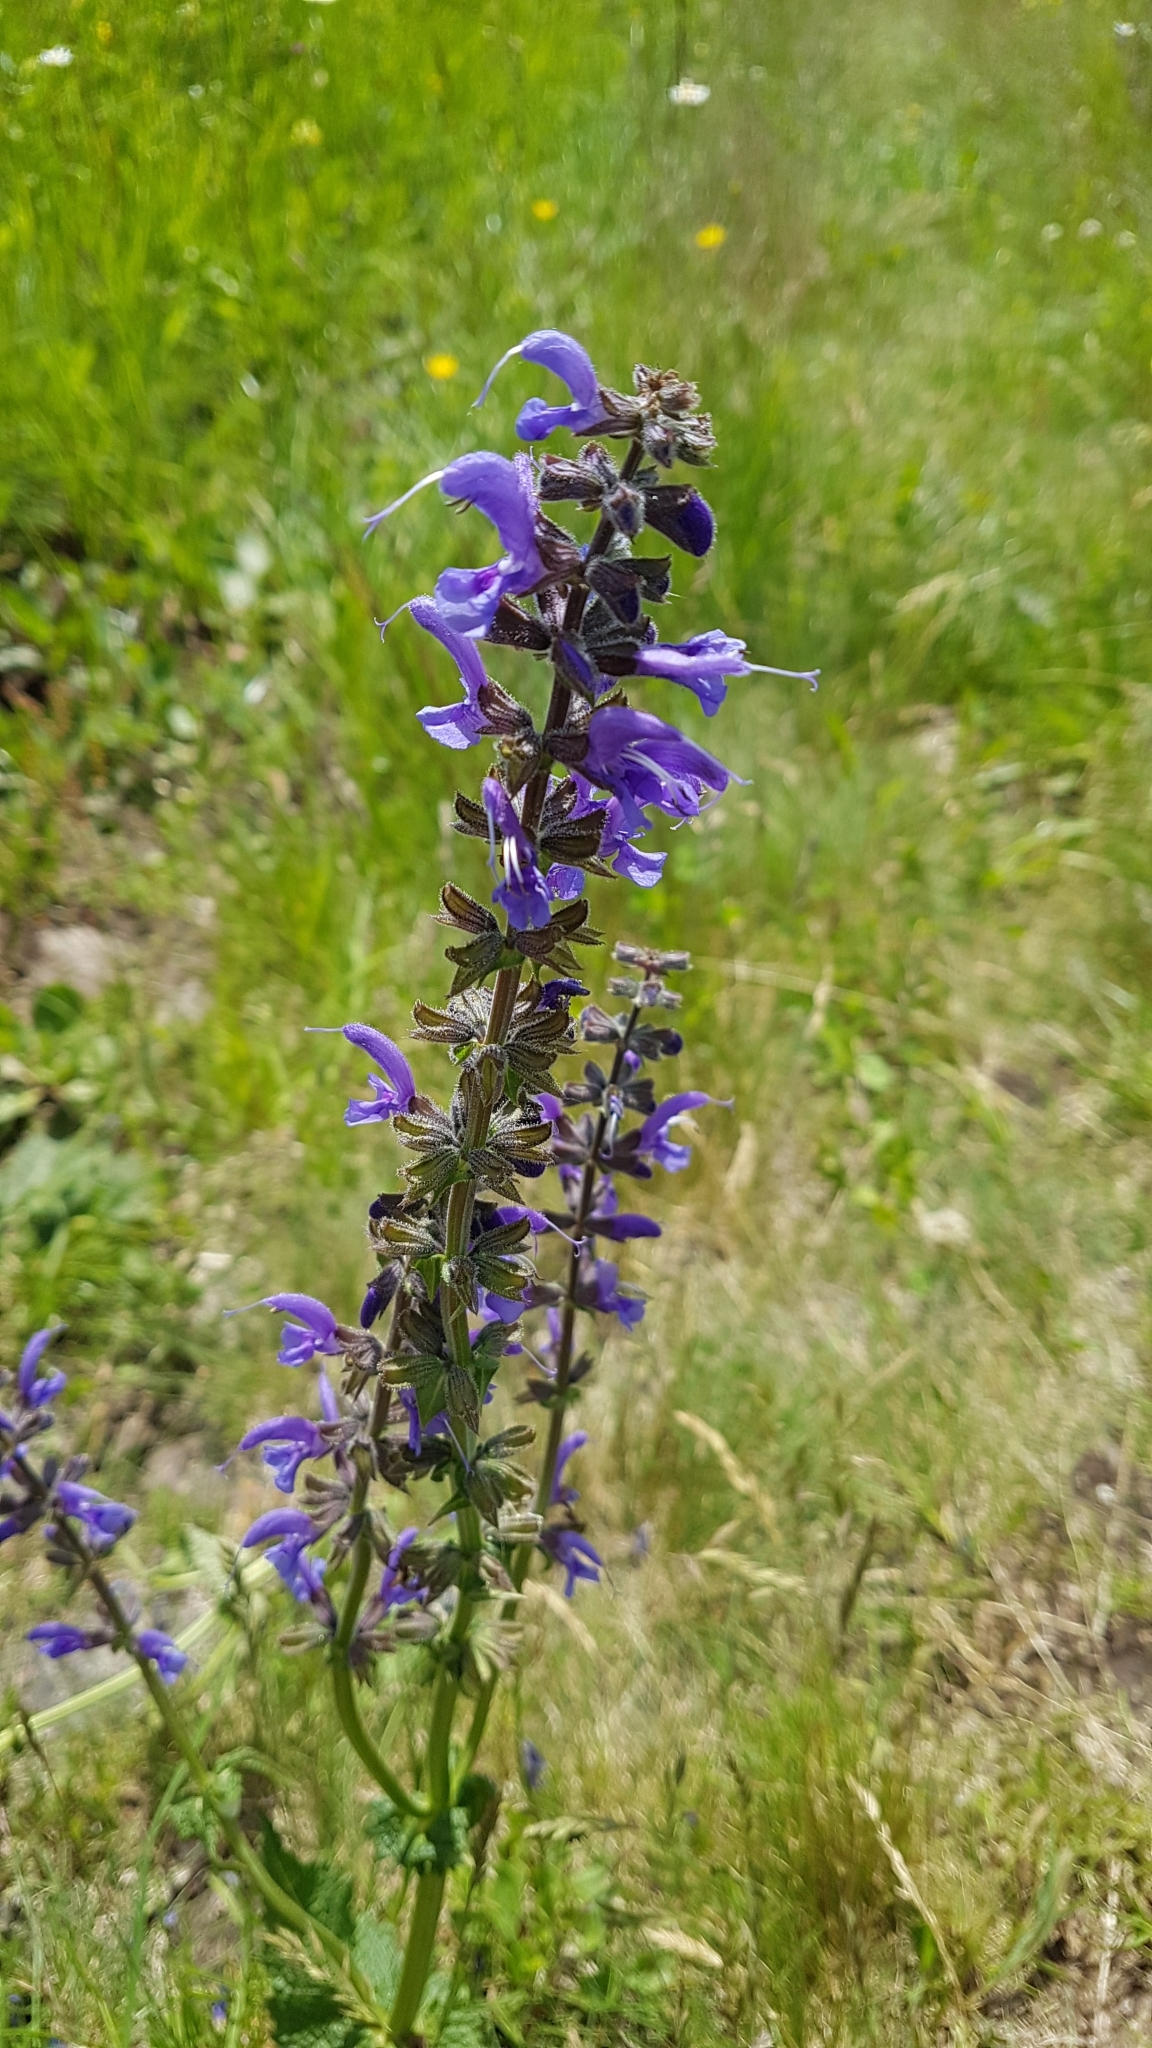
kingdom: Plantae
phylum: Tracheophyta
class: Magnoliopsida
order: Lamiales
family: Lamiaceae
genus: Salvia
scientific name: Salvia pratensis
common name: Meadow sage
